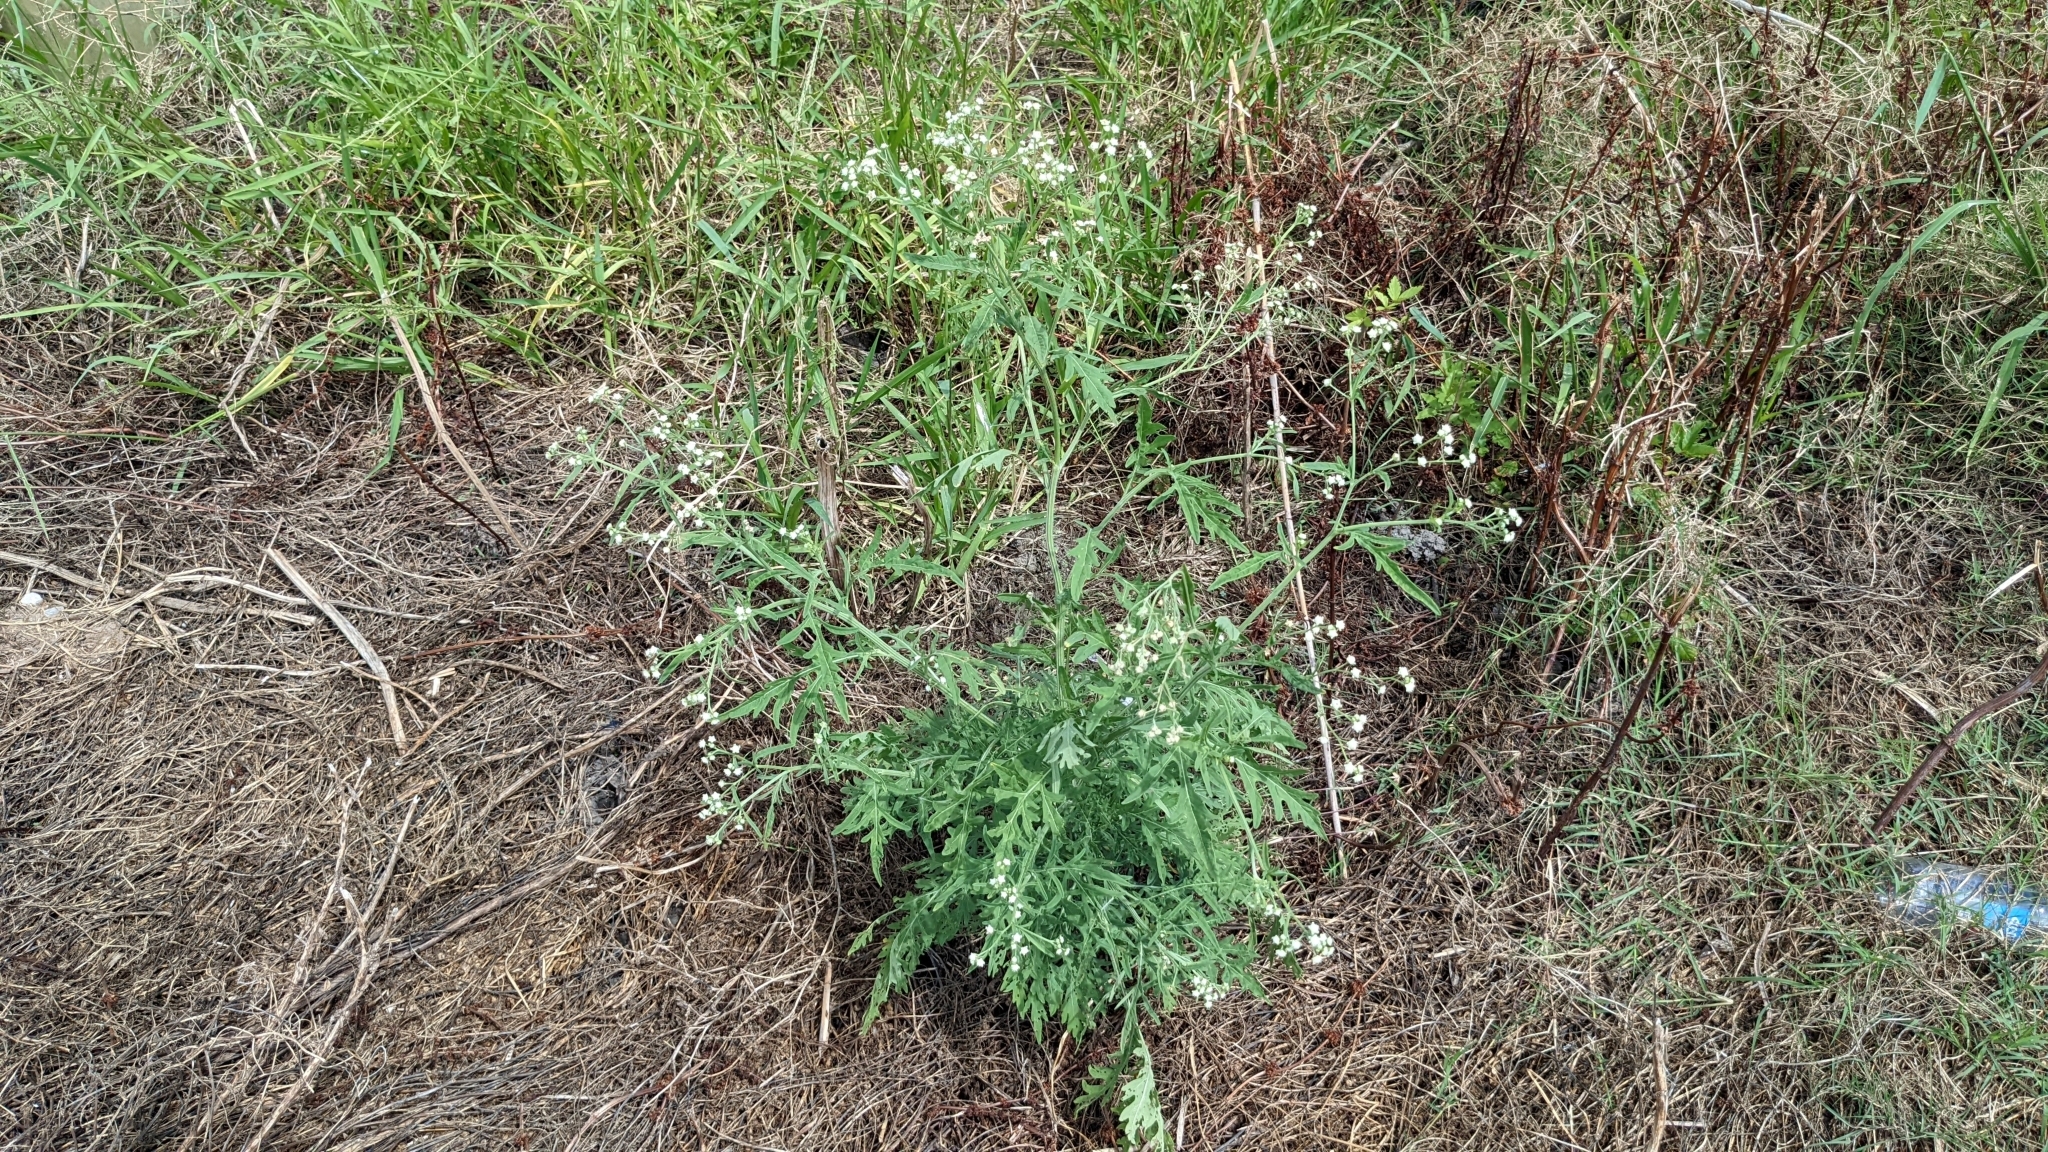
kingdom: Plantae
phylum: Tracheophyta
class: Magnoliopsida
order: Asterales
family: Asteraceae
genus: Parthenium
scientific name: Parthenium hysterophorus
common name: Santa maria feverfew
